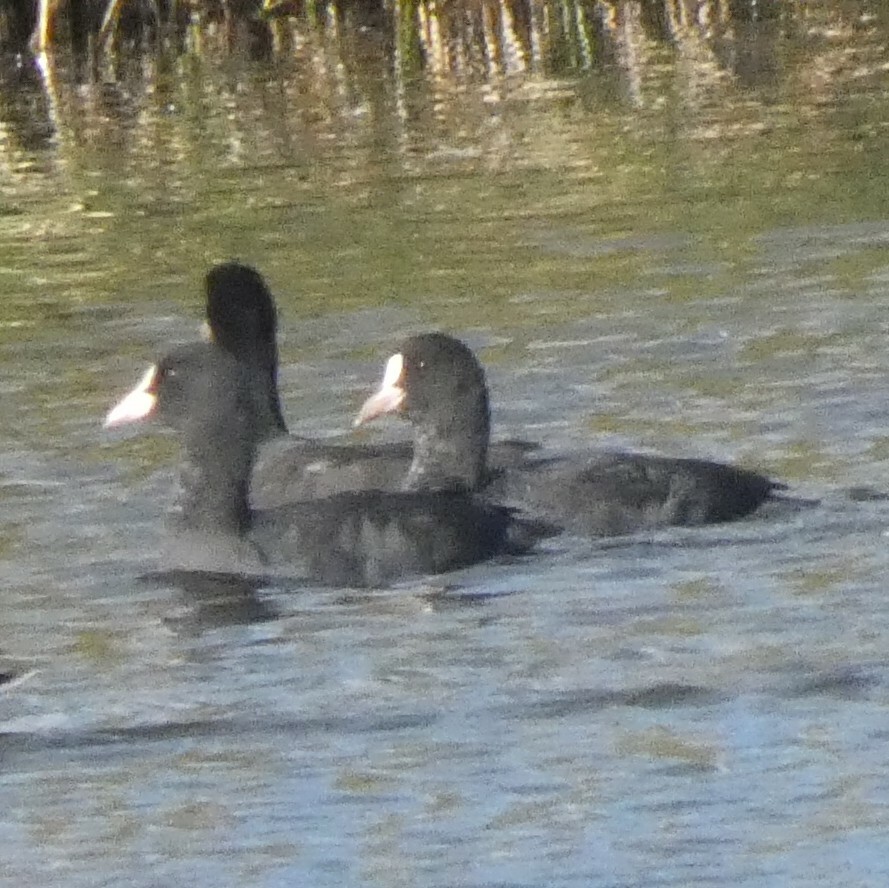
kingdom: Animalia
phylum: Chordata
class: Aves
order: Gruiformes
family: Rallidae
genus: Fulica
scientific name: Fulica atra
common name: Eurasian coot
